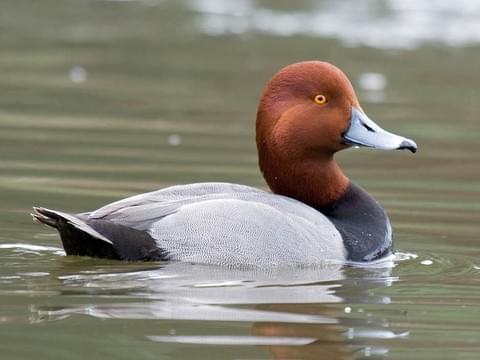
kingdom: Animalia
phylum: Chordata
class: Aves
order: Anseriformes
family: Anatidae
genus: Aythya
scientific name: Aythya americana
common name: Redhead
